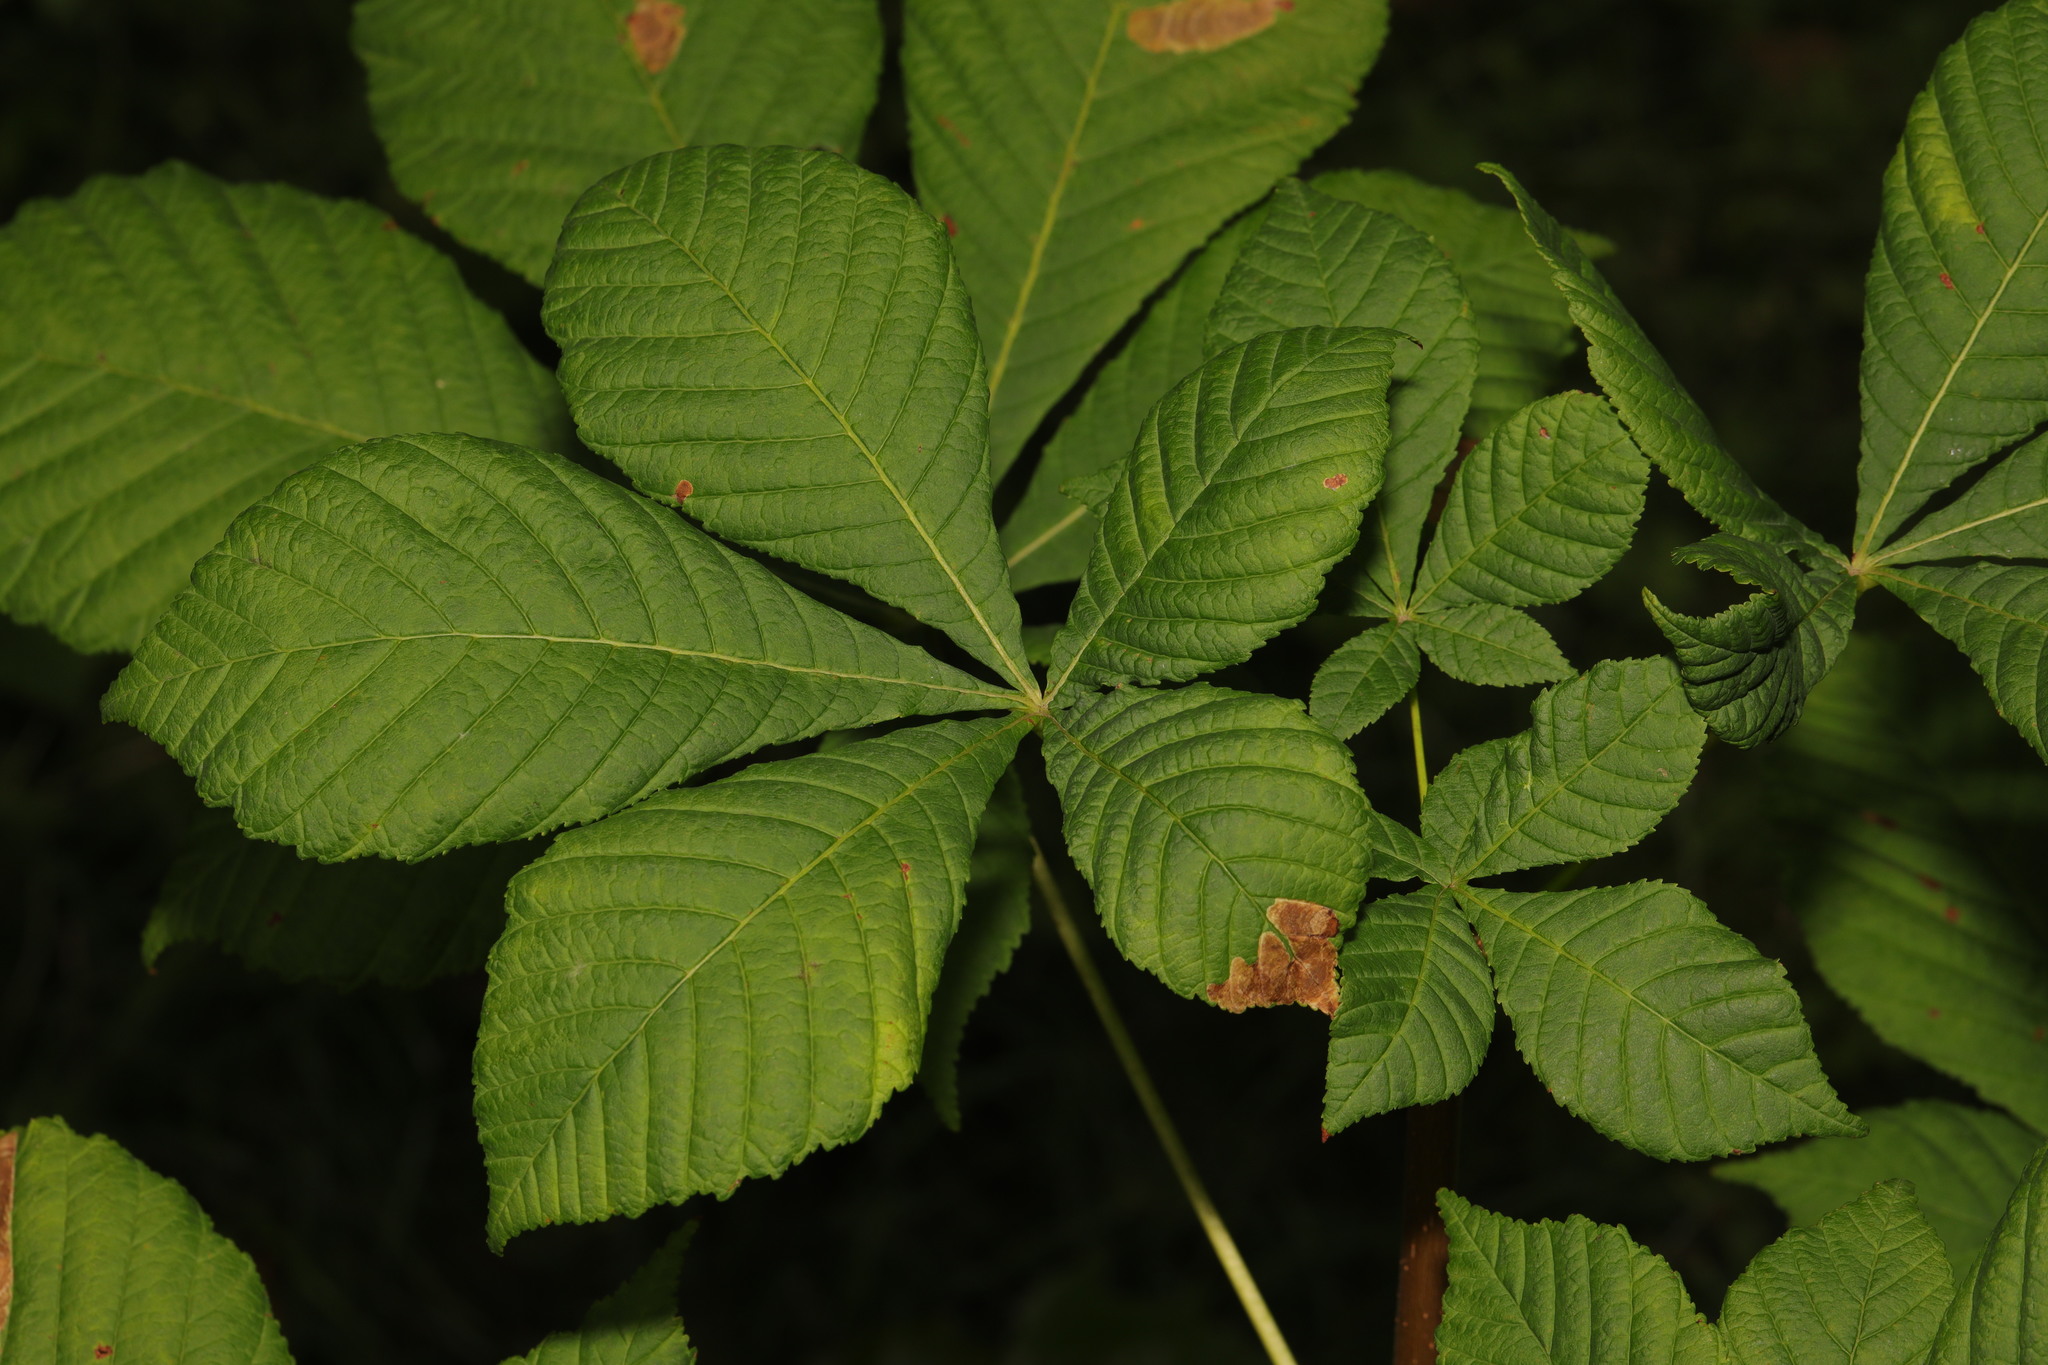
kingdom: Plantae
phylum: Tracheophyta
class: Magnoliopsida
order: Sapindales
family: Sapindaceae
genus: Aesculus
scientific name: Aesculus hippocastanum
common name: Horse-chestnut
